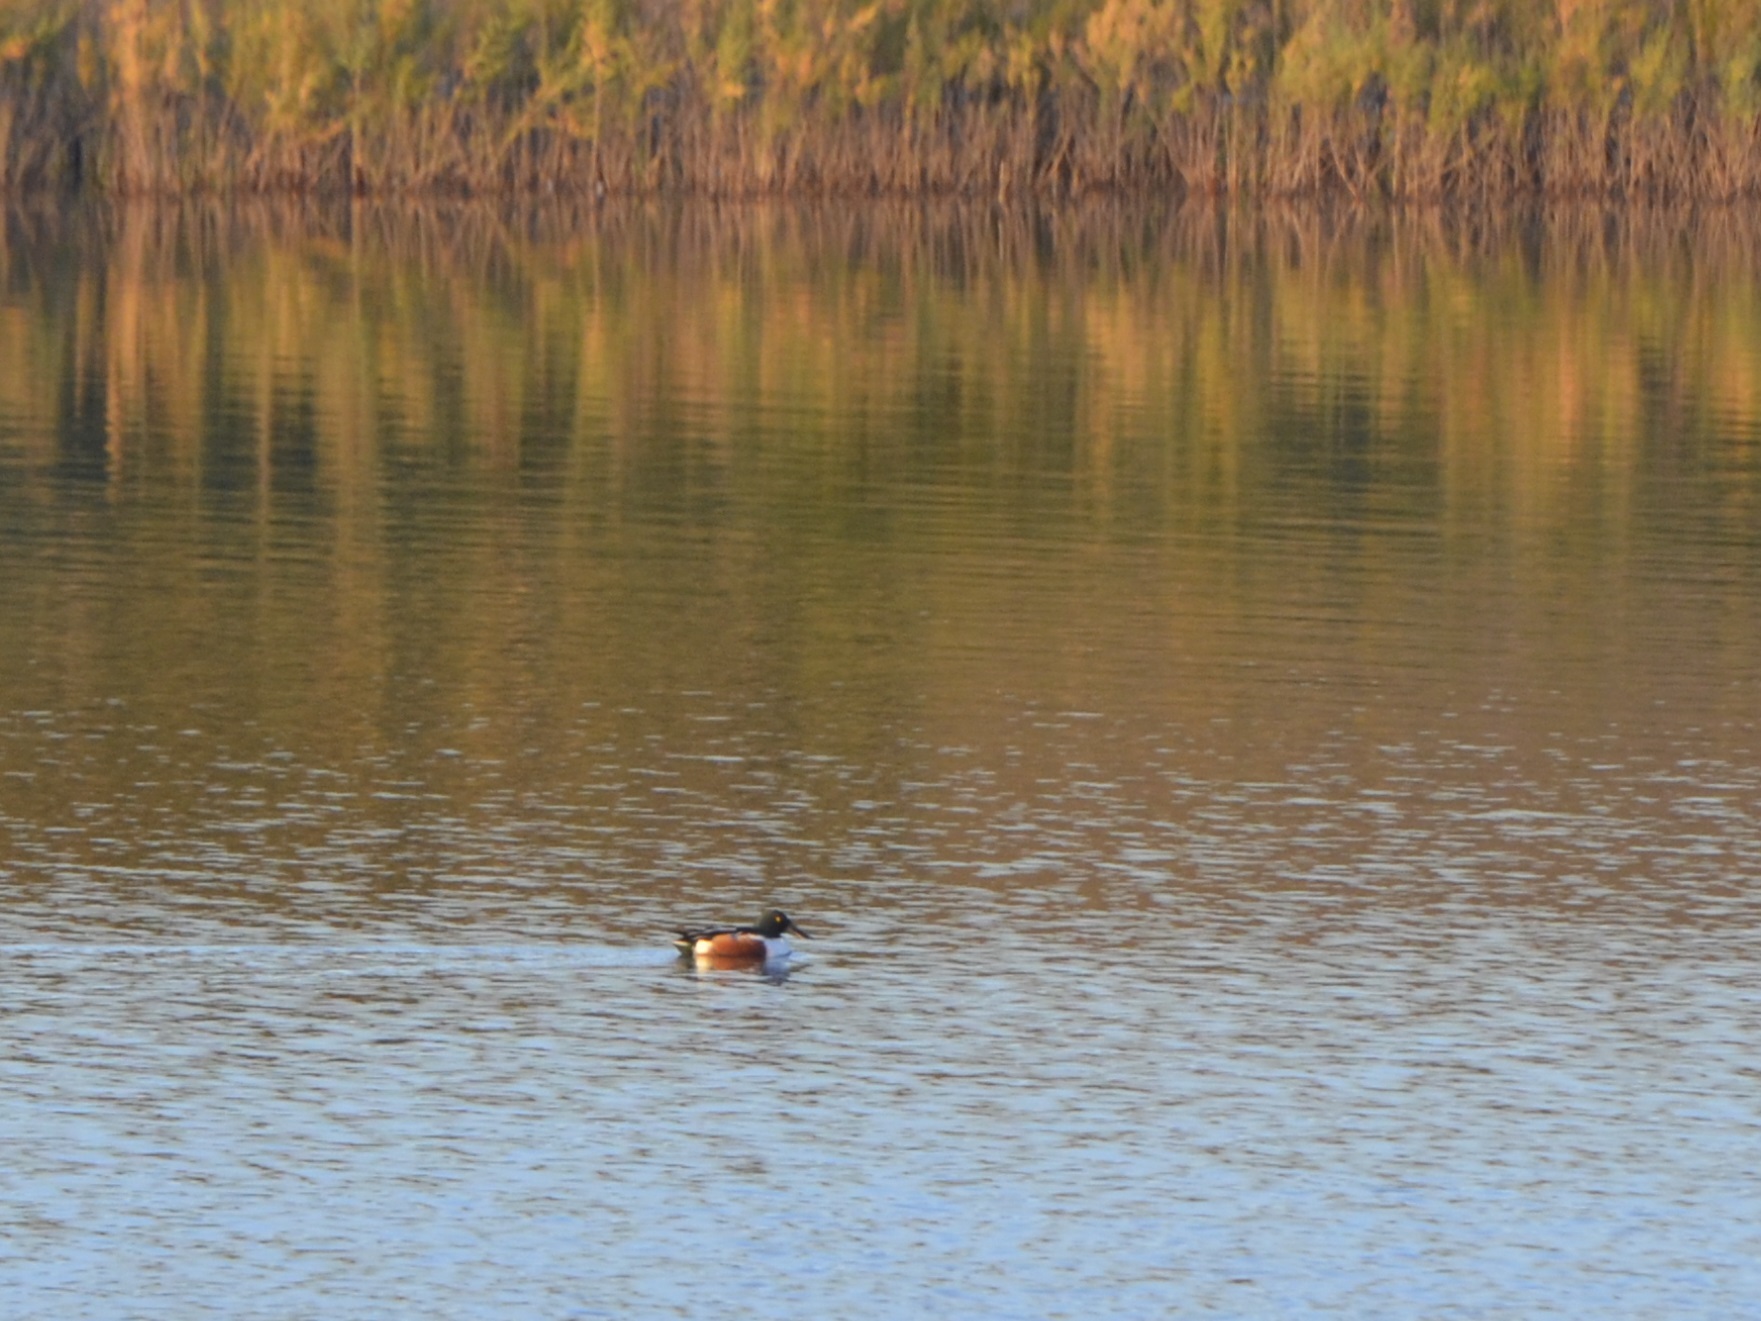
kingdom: Animalia
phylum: Chordata
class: Aves
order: Anseriformes
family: Anatidae
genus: Spatula
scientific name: Spatula clypeata
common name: Northern shoveler
